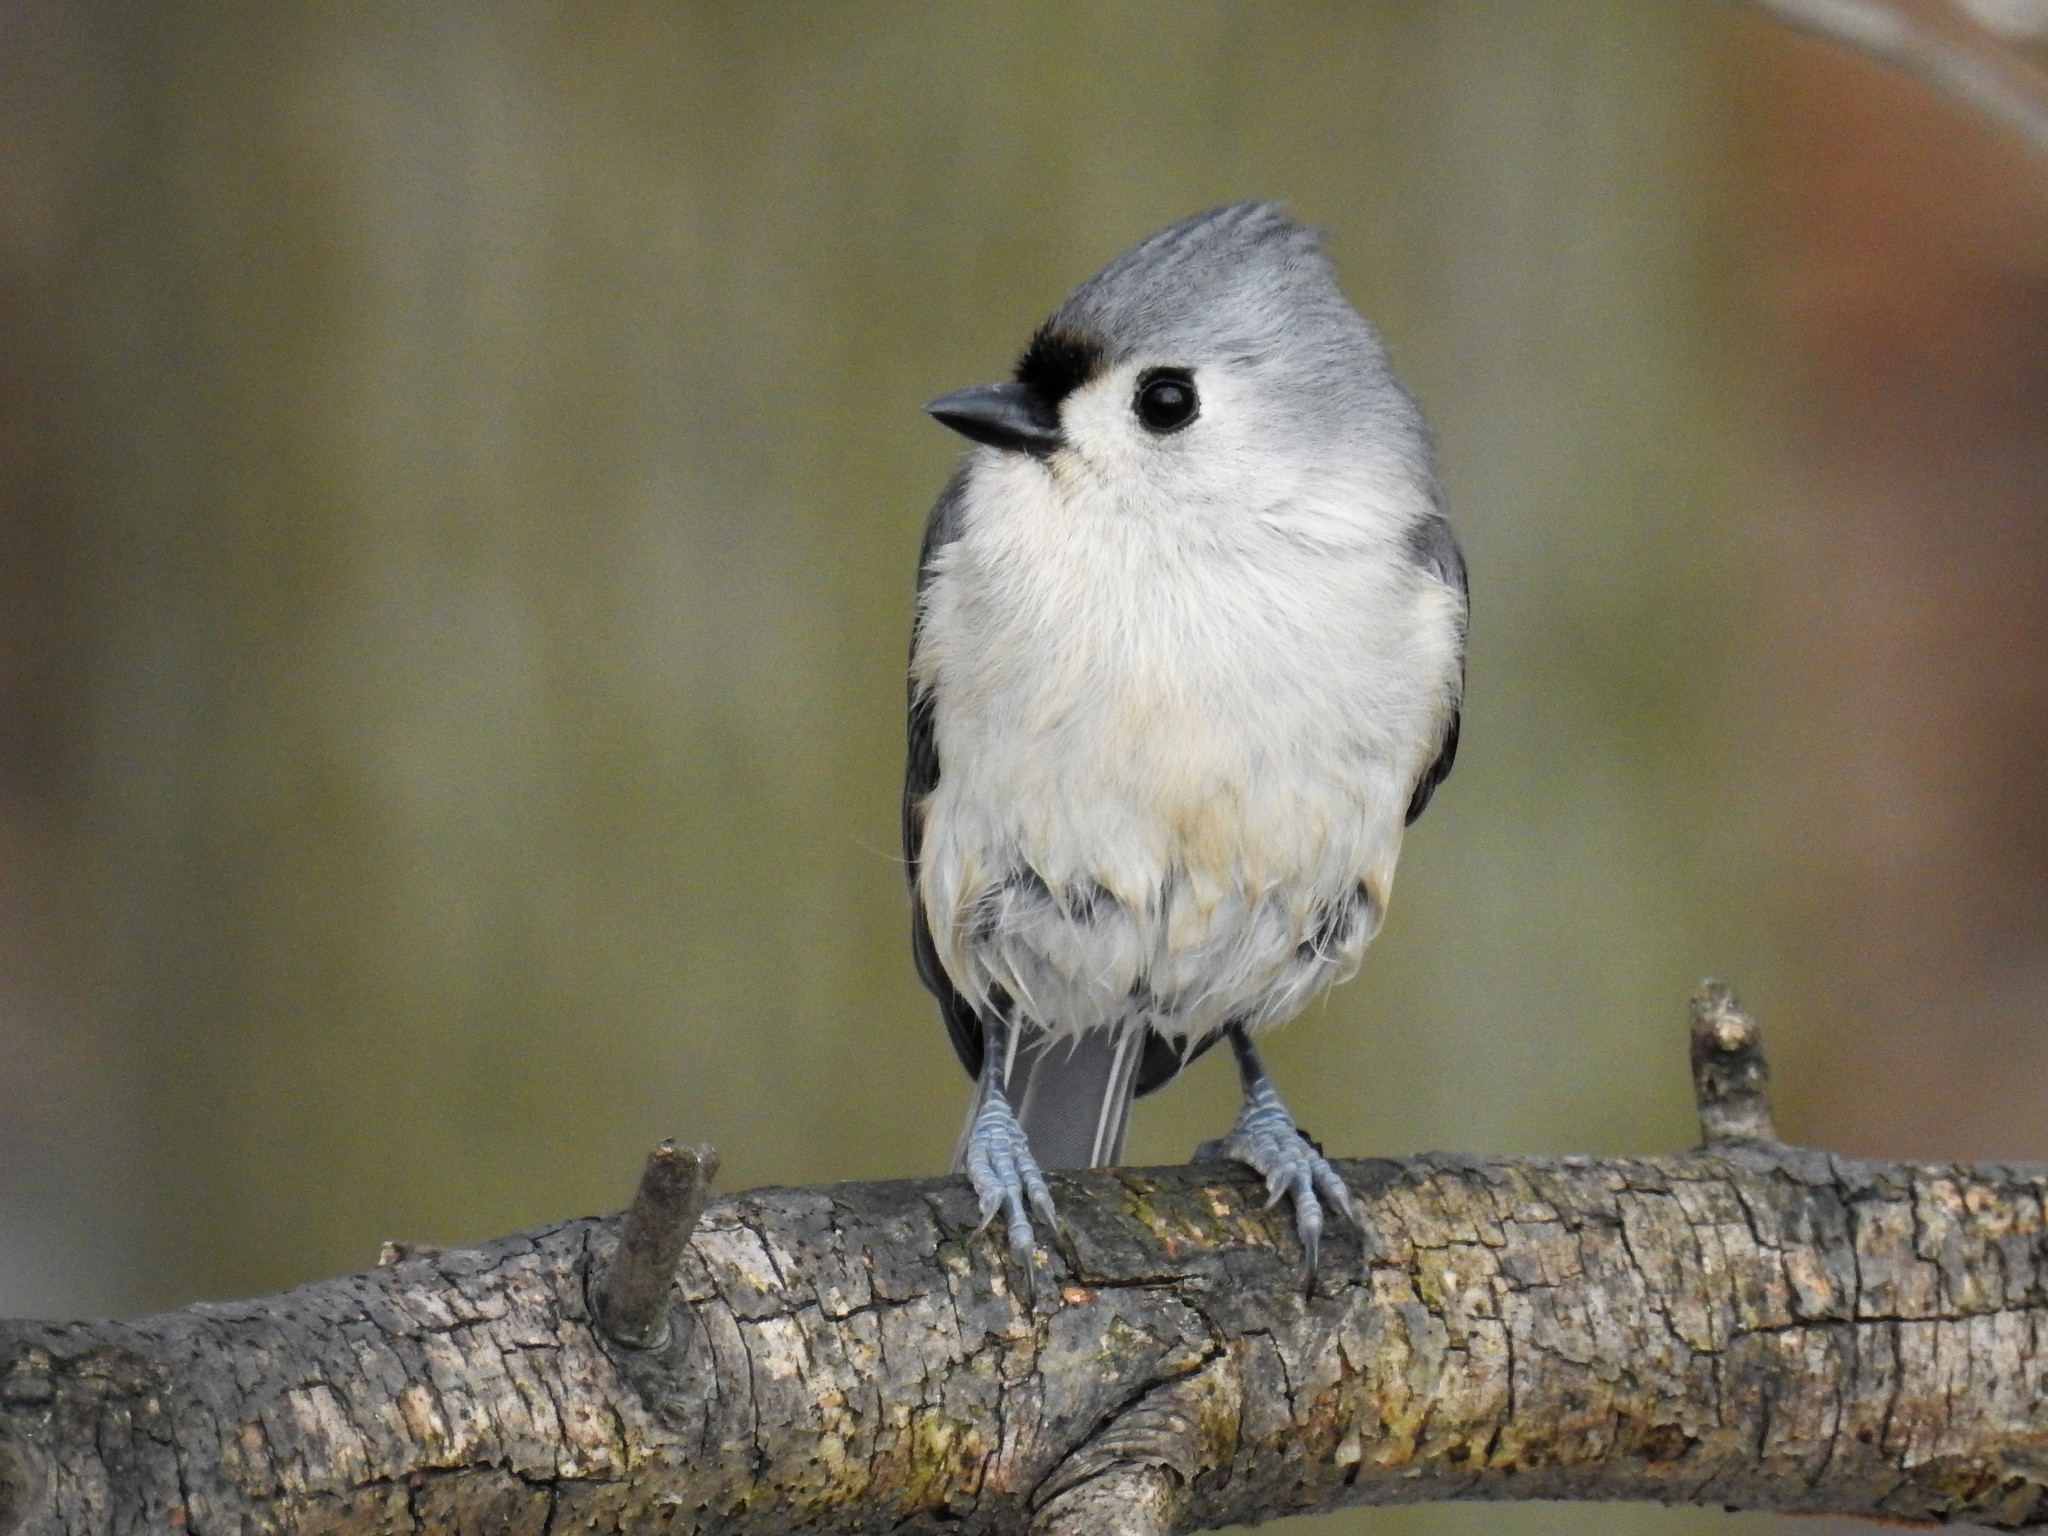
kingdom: Animalia
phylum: Chordata
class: Aves
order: Passeriformes
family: Paridae
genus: Baeolophus
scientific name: Baeolophus bicolor
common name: Tufted titmouse
